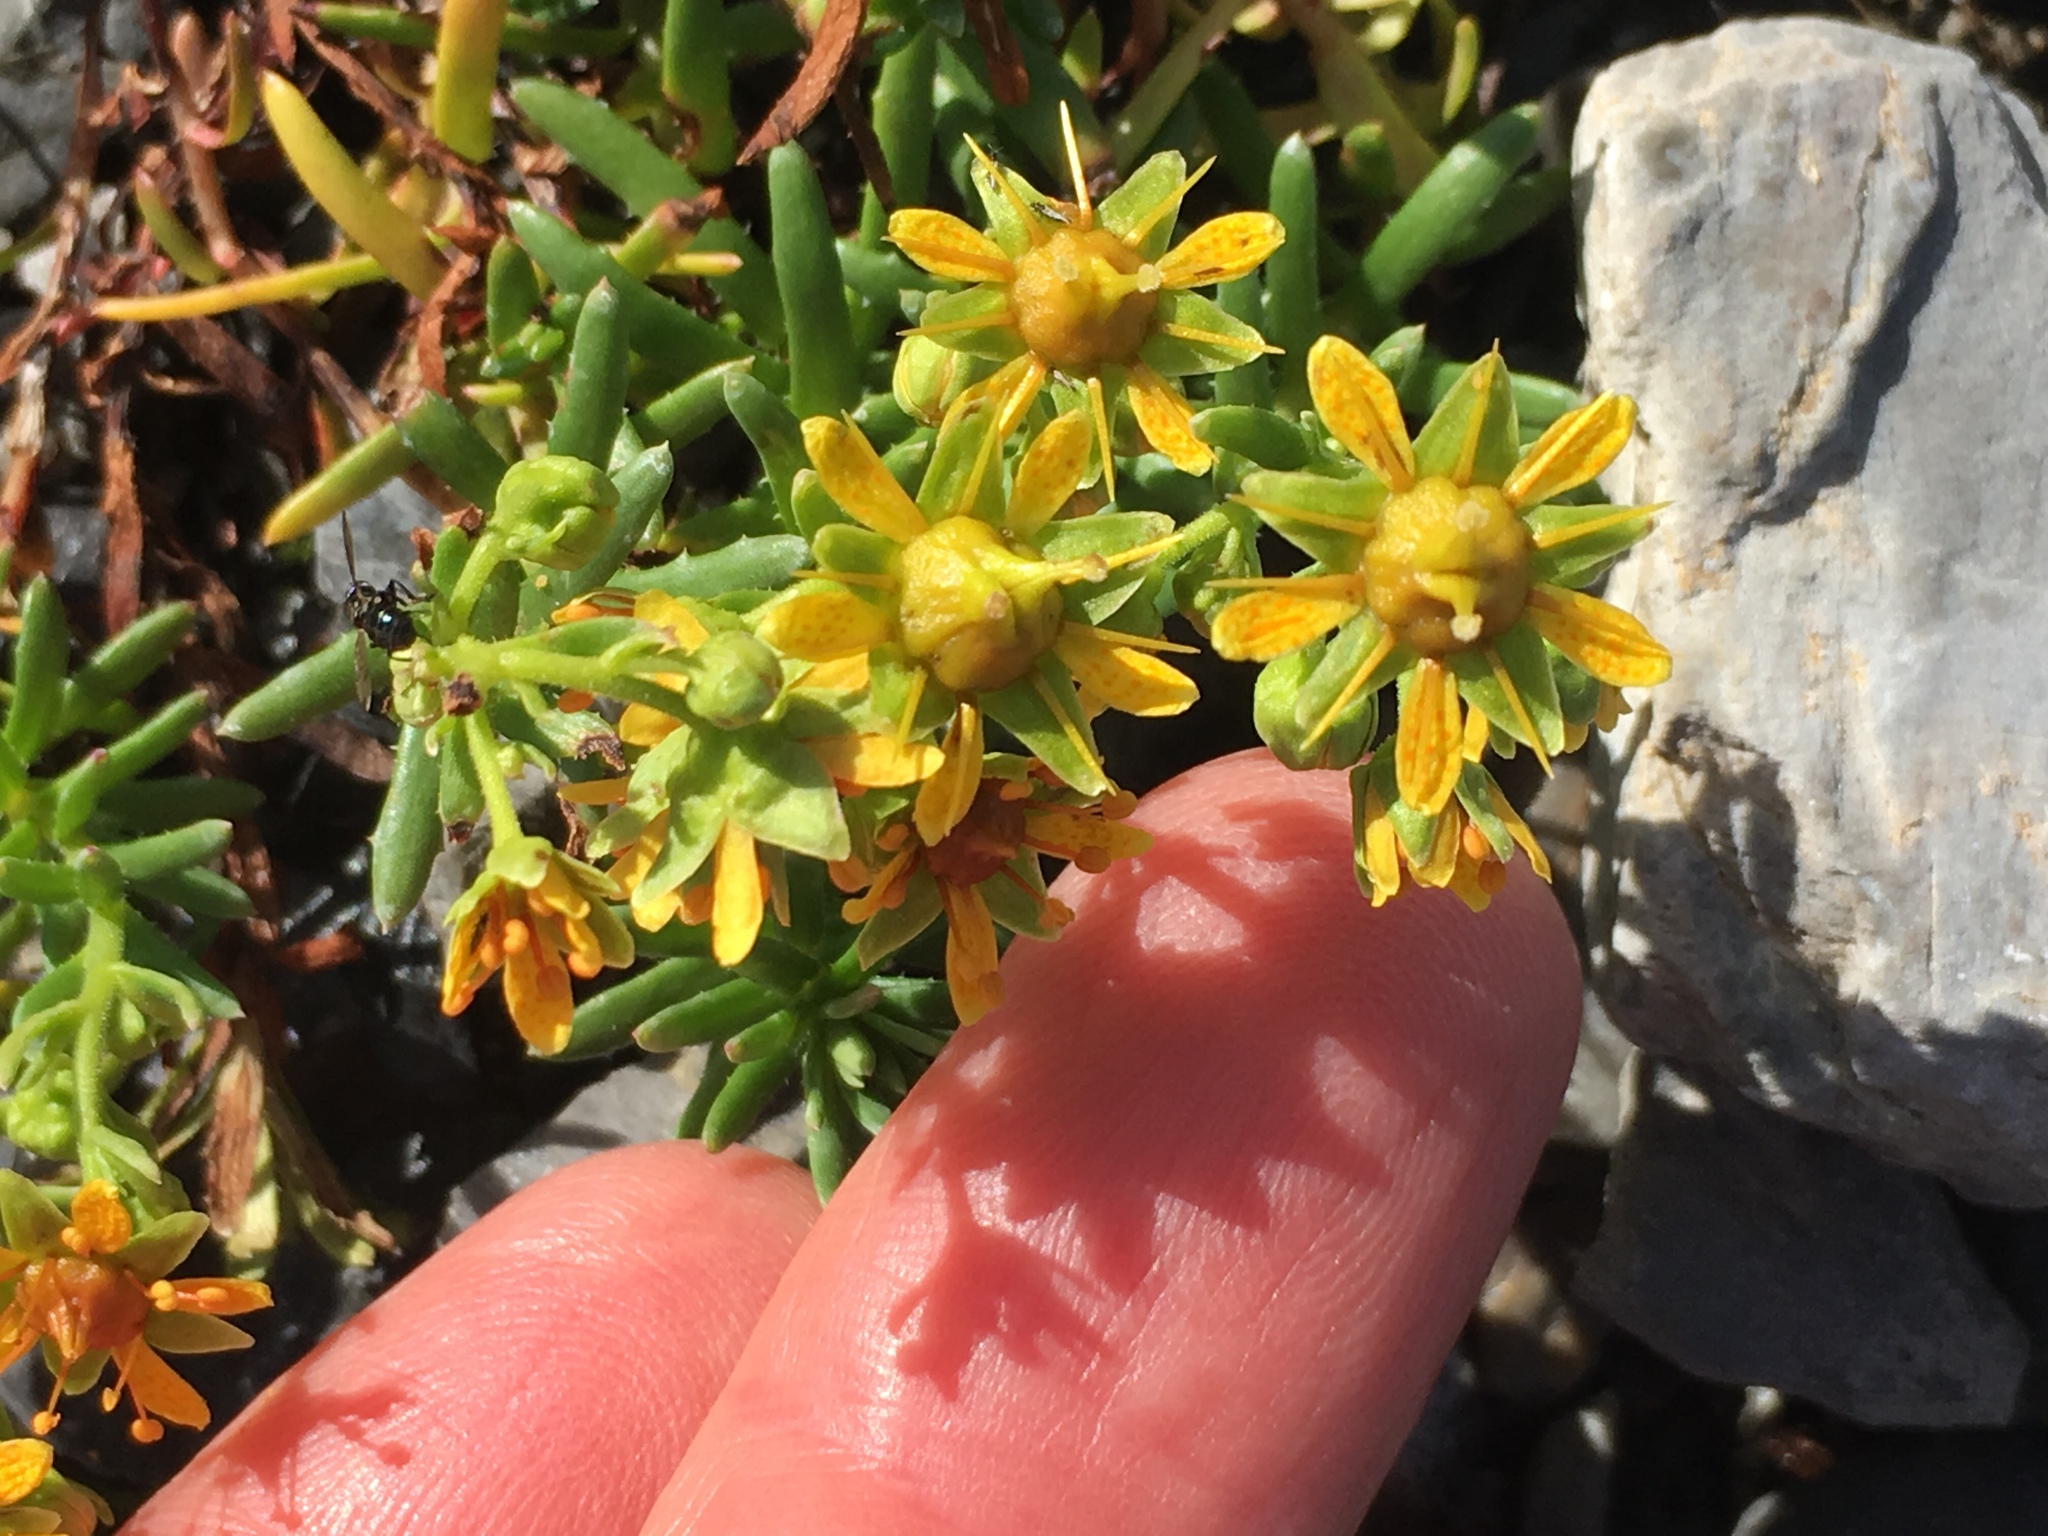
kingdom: Plantae
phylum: Tracheophyta
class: Magnoliopsida
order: Saxifragales
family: Saxifragaceae
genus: Saxifraga
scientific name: Saxifraga aizoides
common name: Yellow mountain saxifrage
